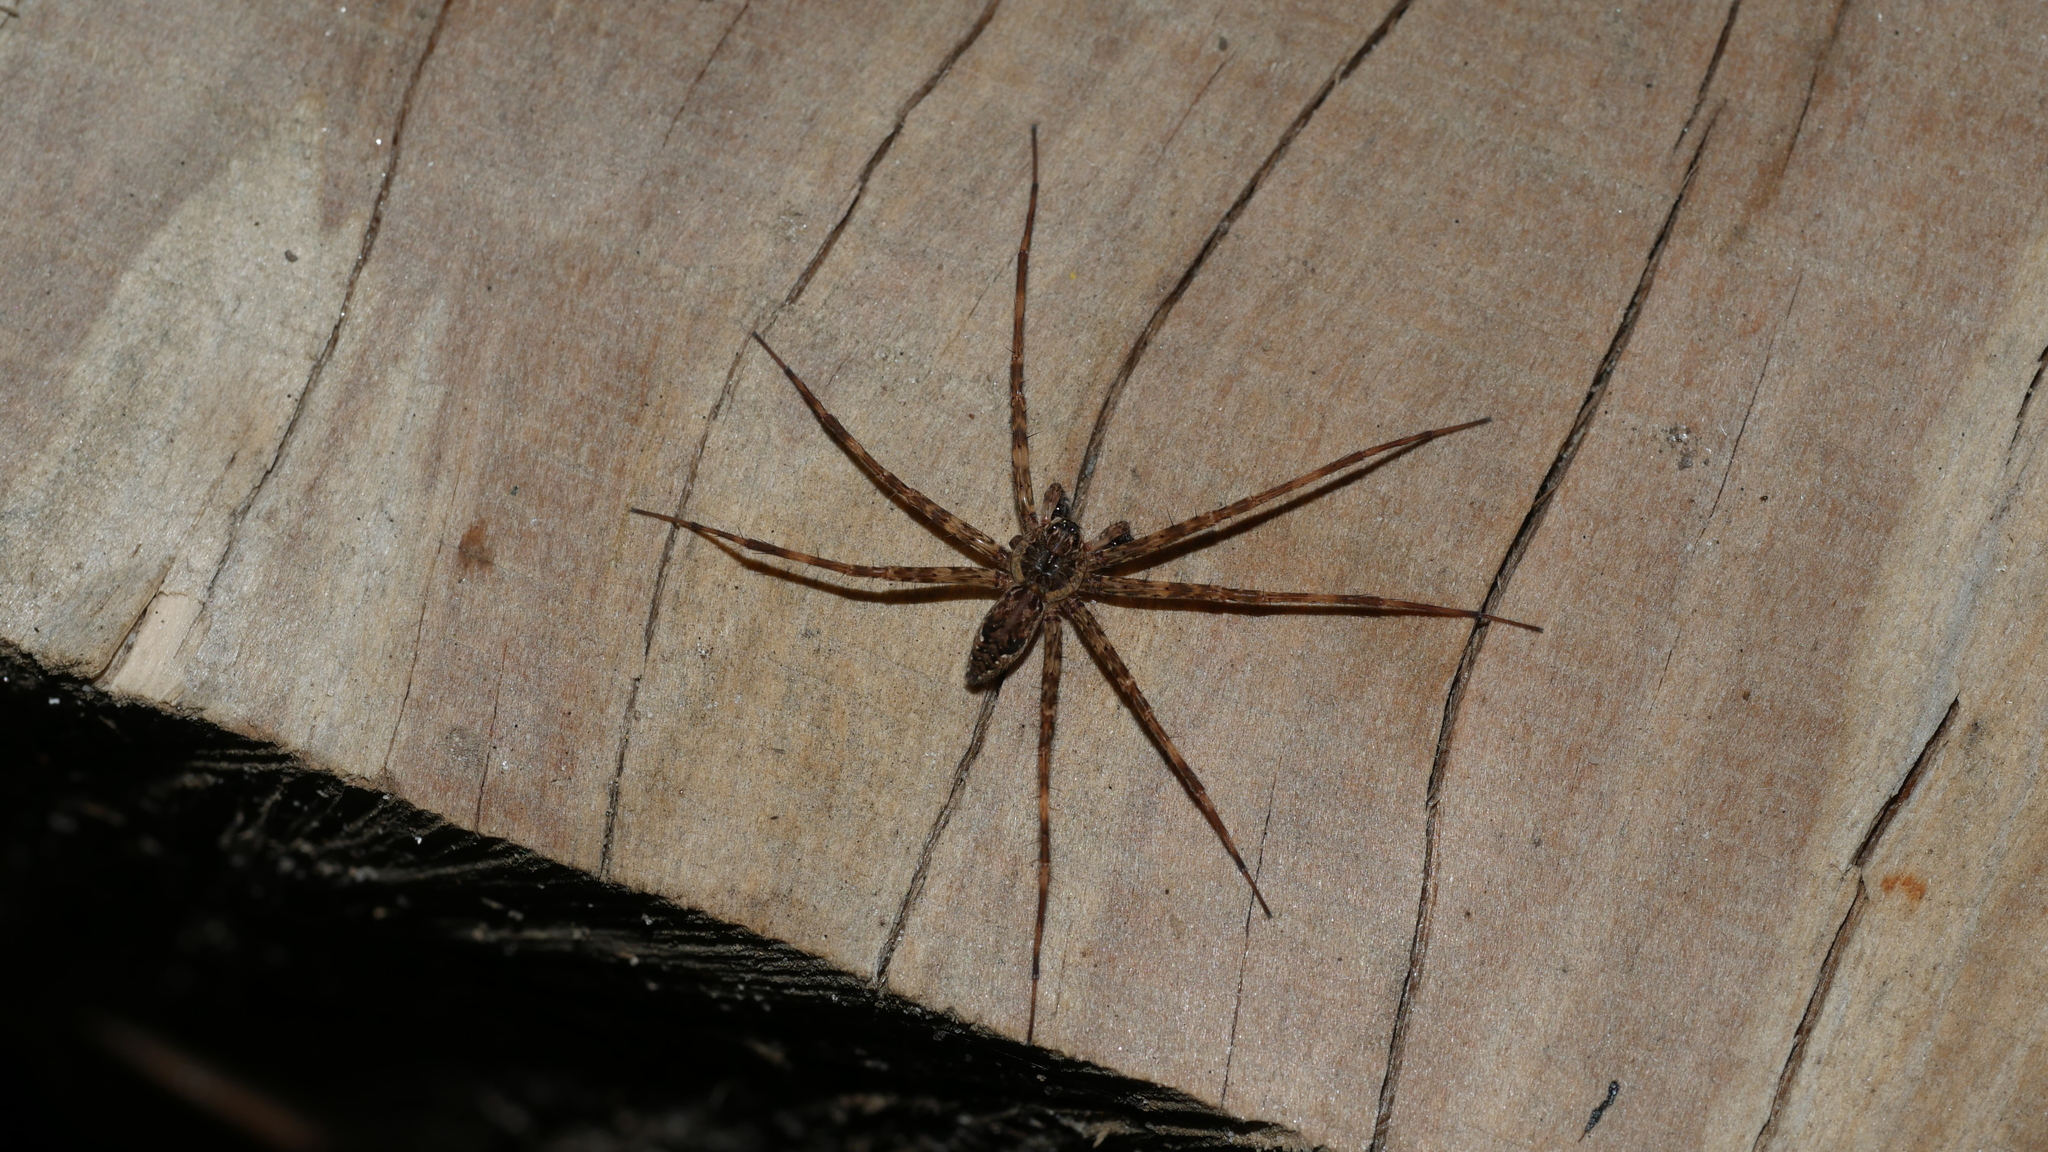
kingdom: Animalia
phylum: Arthropoda
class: Arachnida
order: Araneae
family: Pisauridae
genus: Dolomedes
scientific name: Dolomedes tenebrosus
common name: Dark fishing spider
